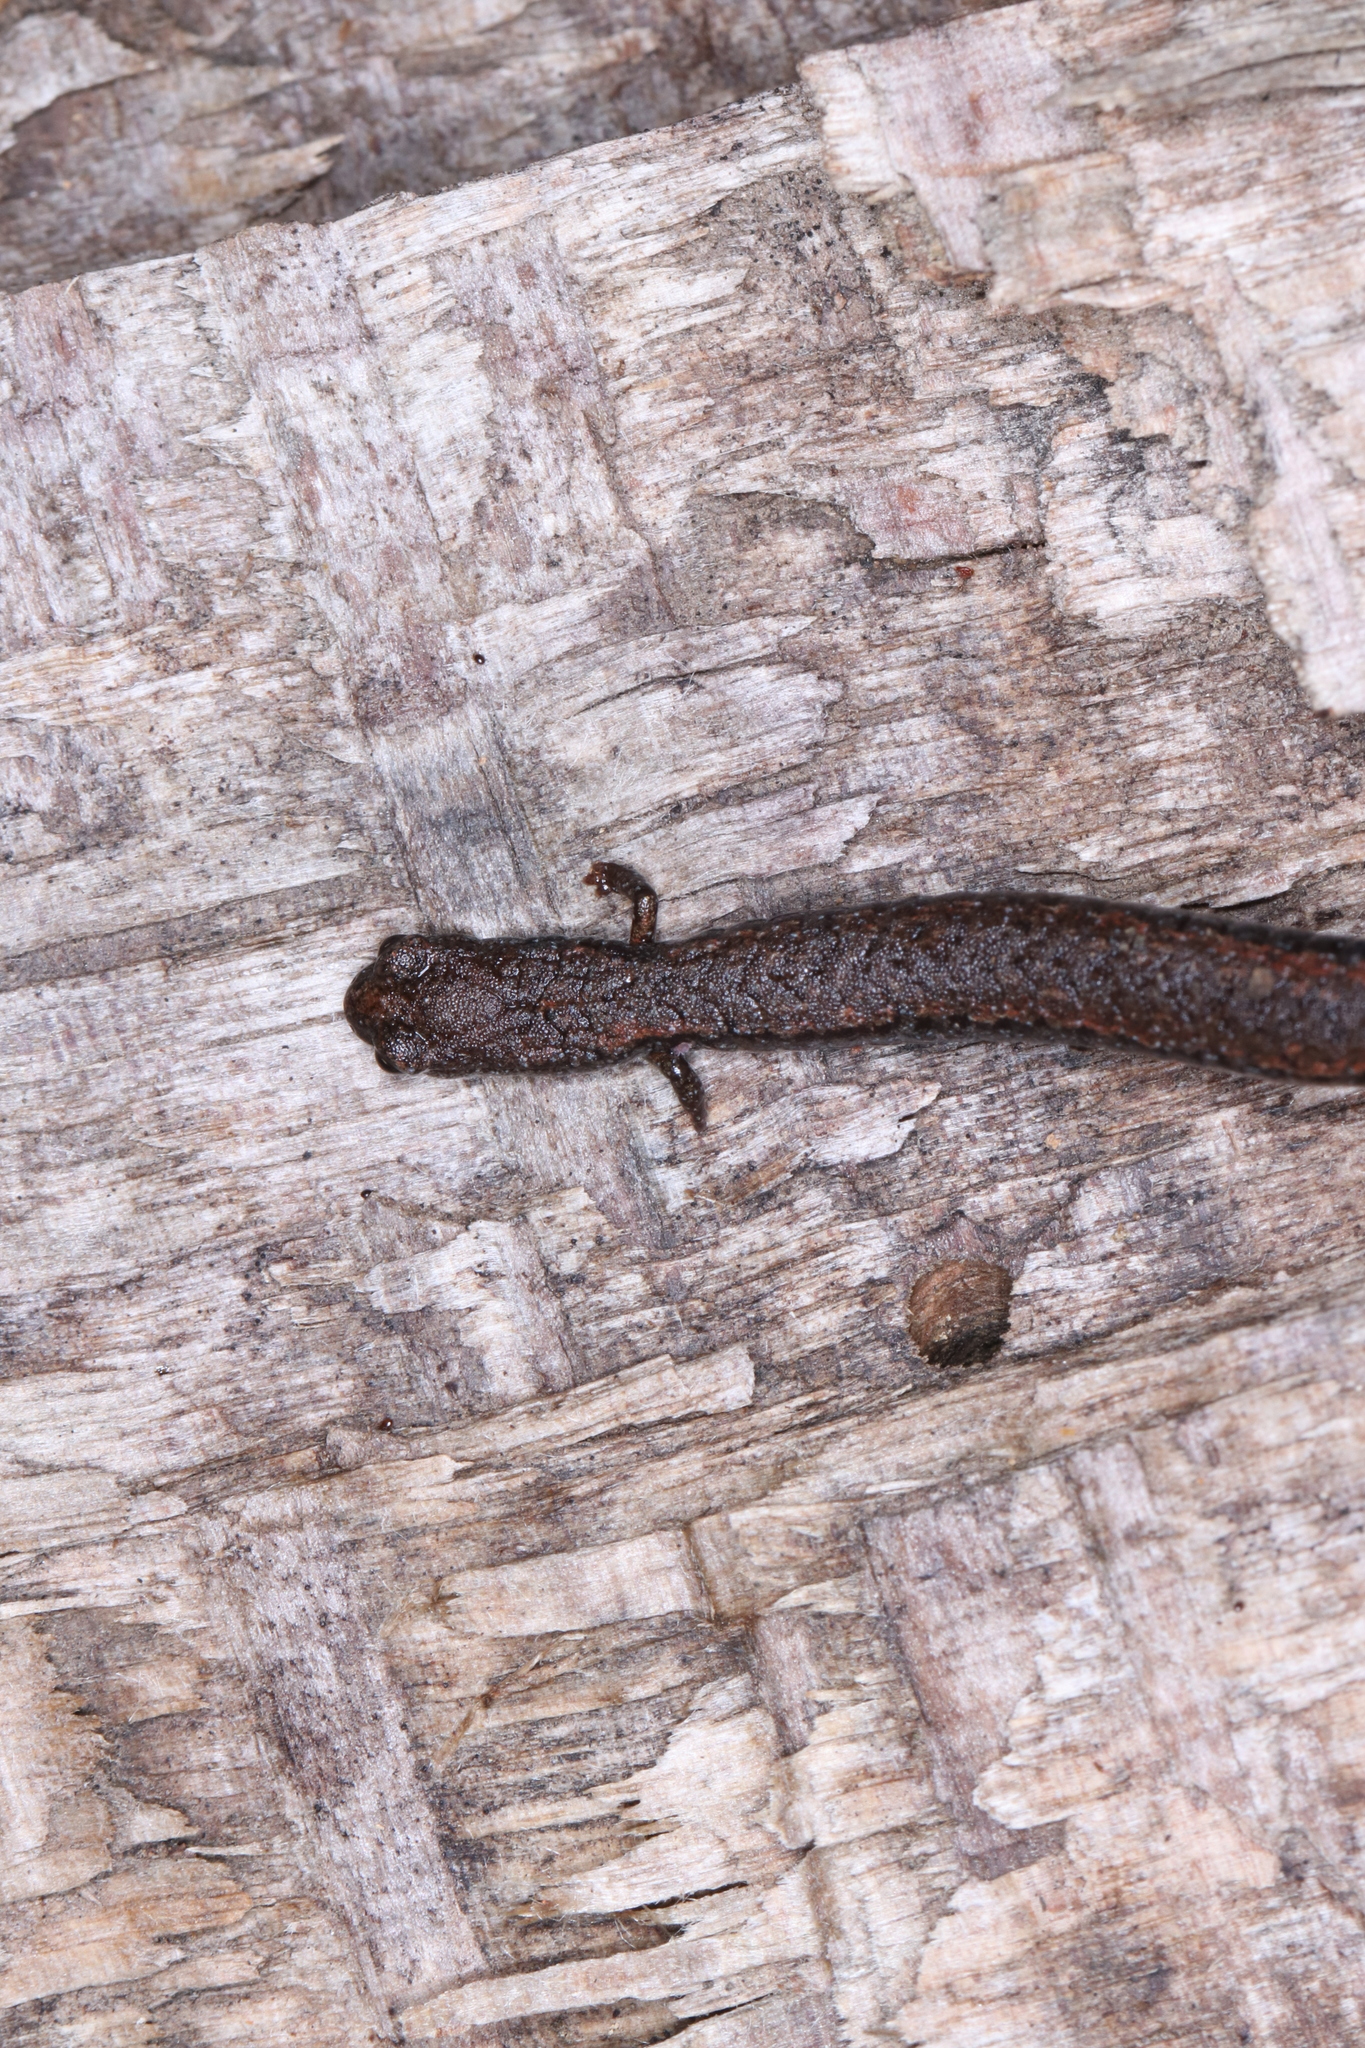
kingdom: Animalia
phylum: Chordata
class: Amphibia
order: Caudata
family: Plethodontidae
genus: Batrachoseps
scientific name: Batrachoseps nigriventris
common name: Black-bellied slender salamander
